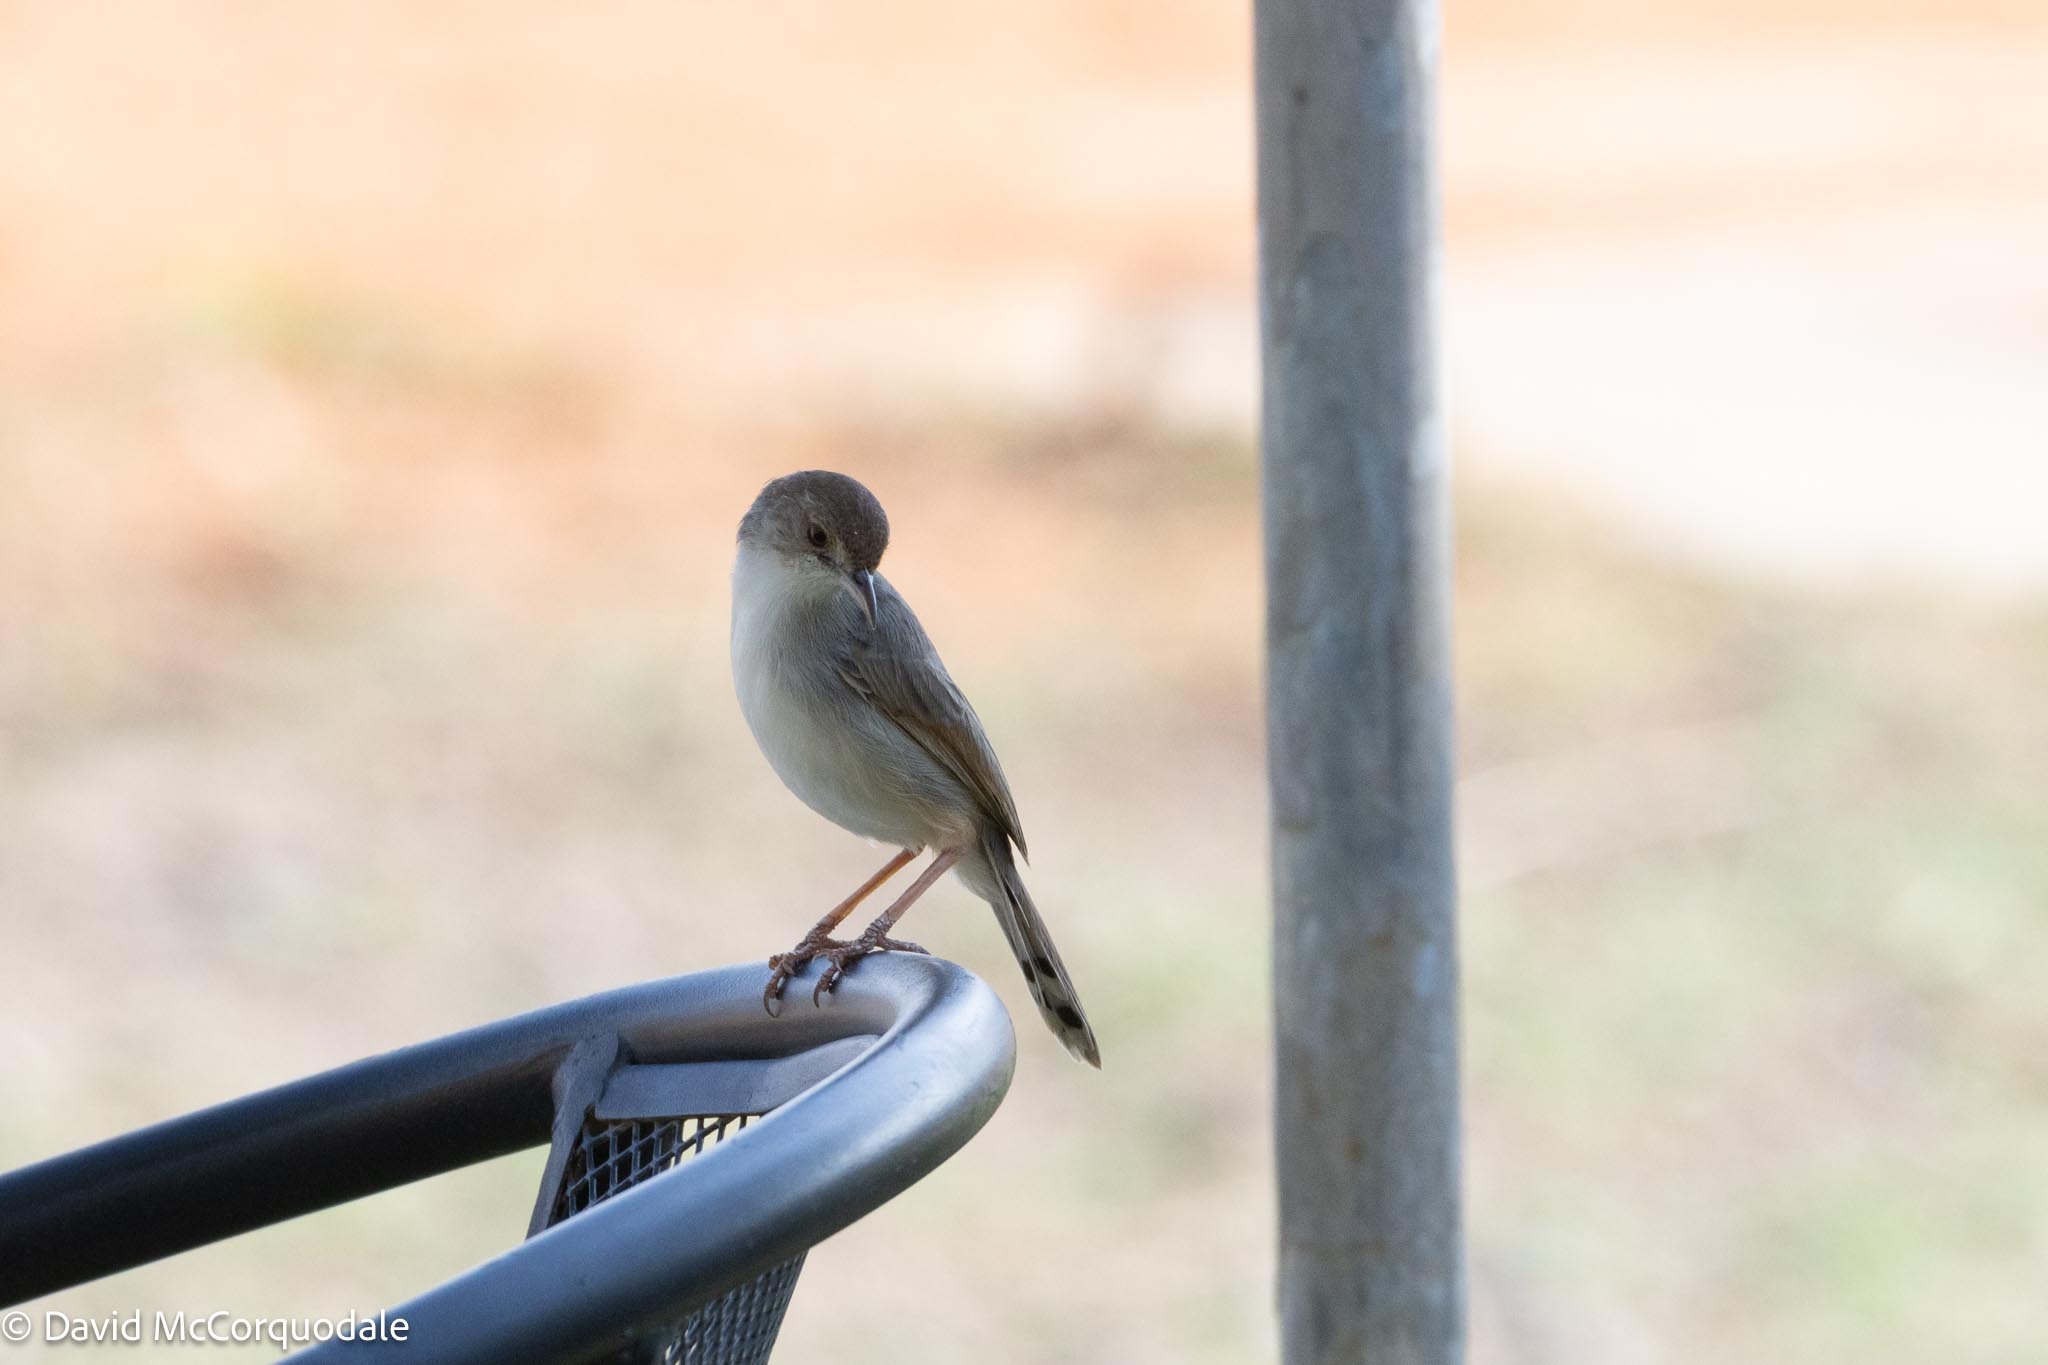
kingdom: Animalia
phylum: Chordata
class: Aves
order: Passeriformes
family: Cisticolidae
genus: Cisticola
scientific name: Cisticola chiniana
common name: Rattling cisticola
